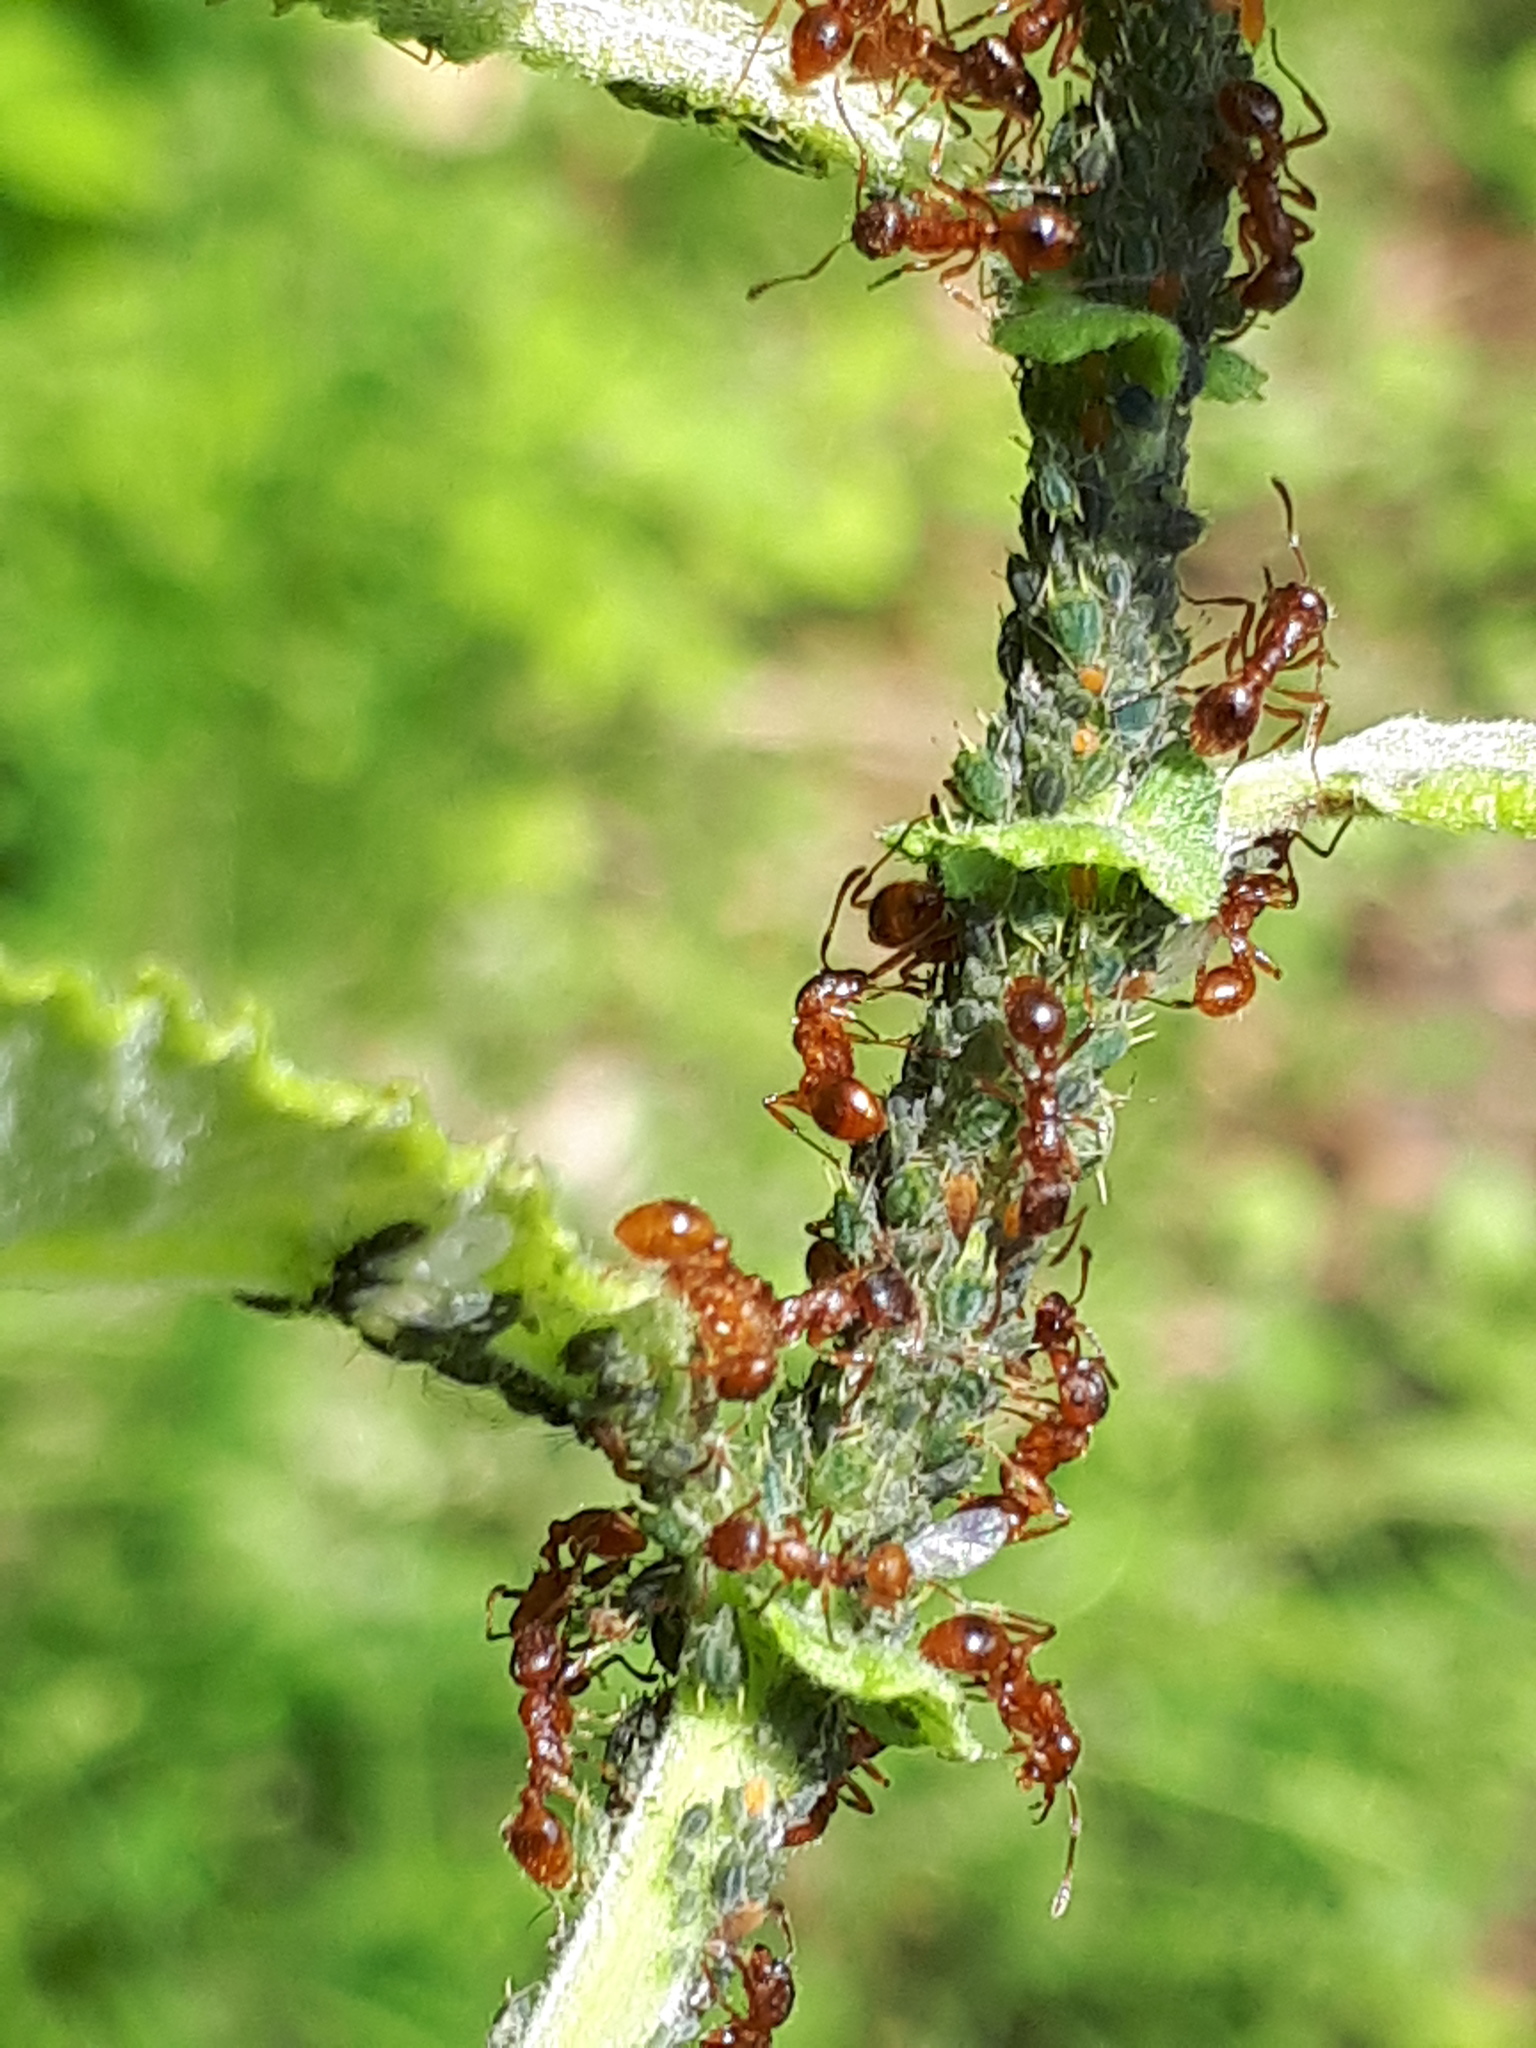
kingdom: Animalia
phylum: Arthropoda
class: Insecta
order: Hemiptera
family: Aphididae
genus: Aphis
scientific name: Aphis farinosa
